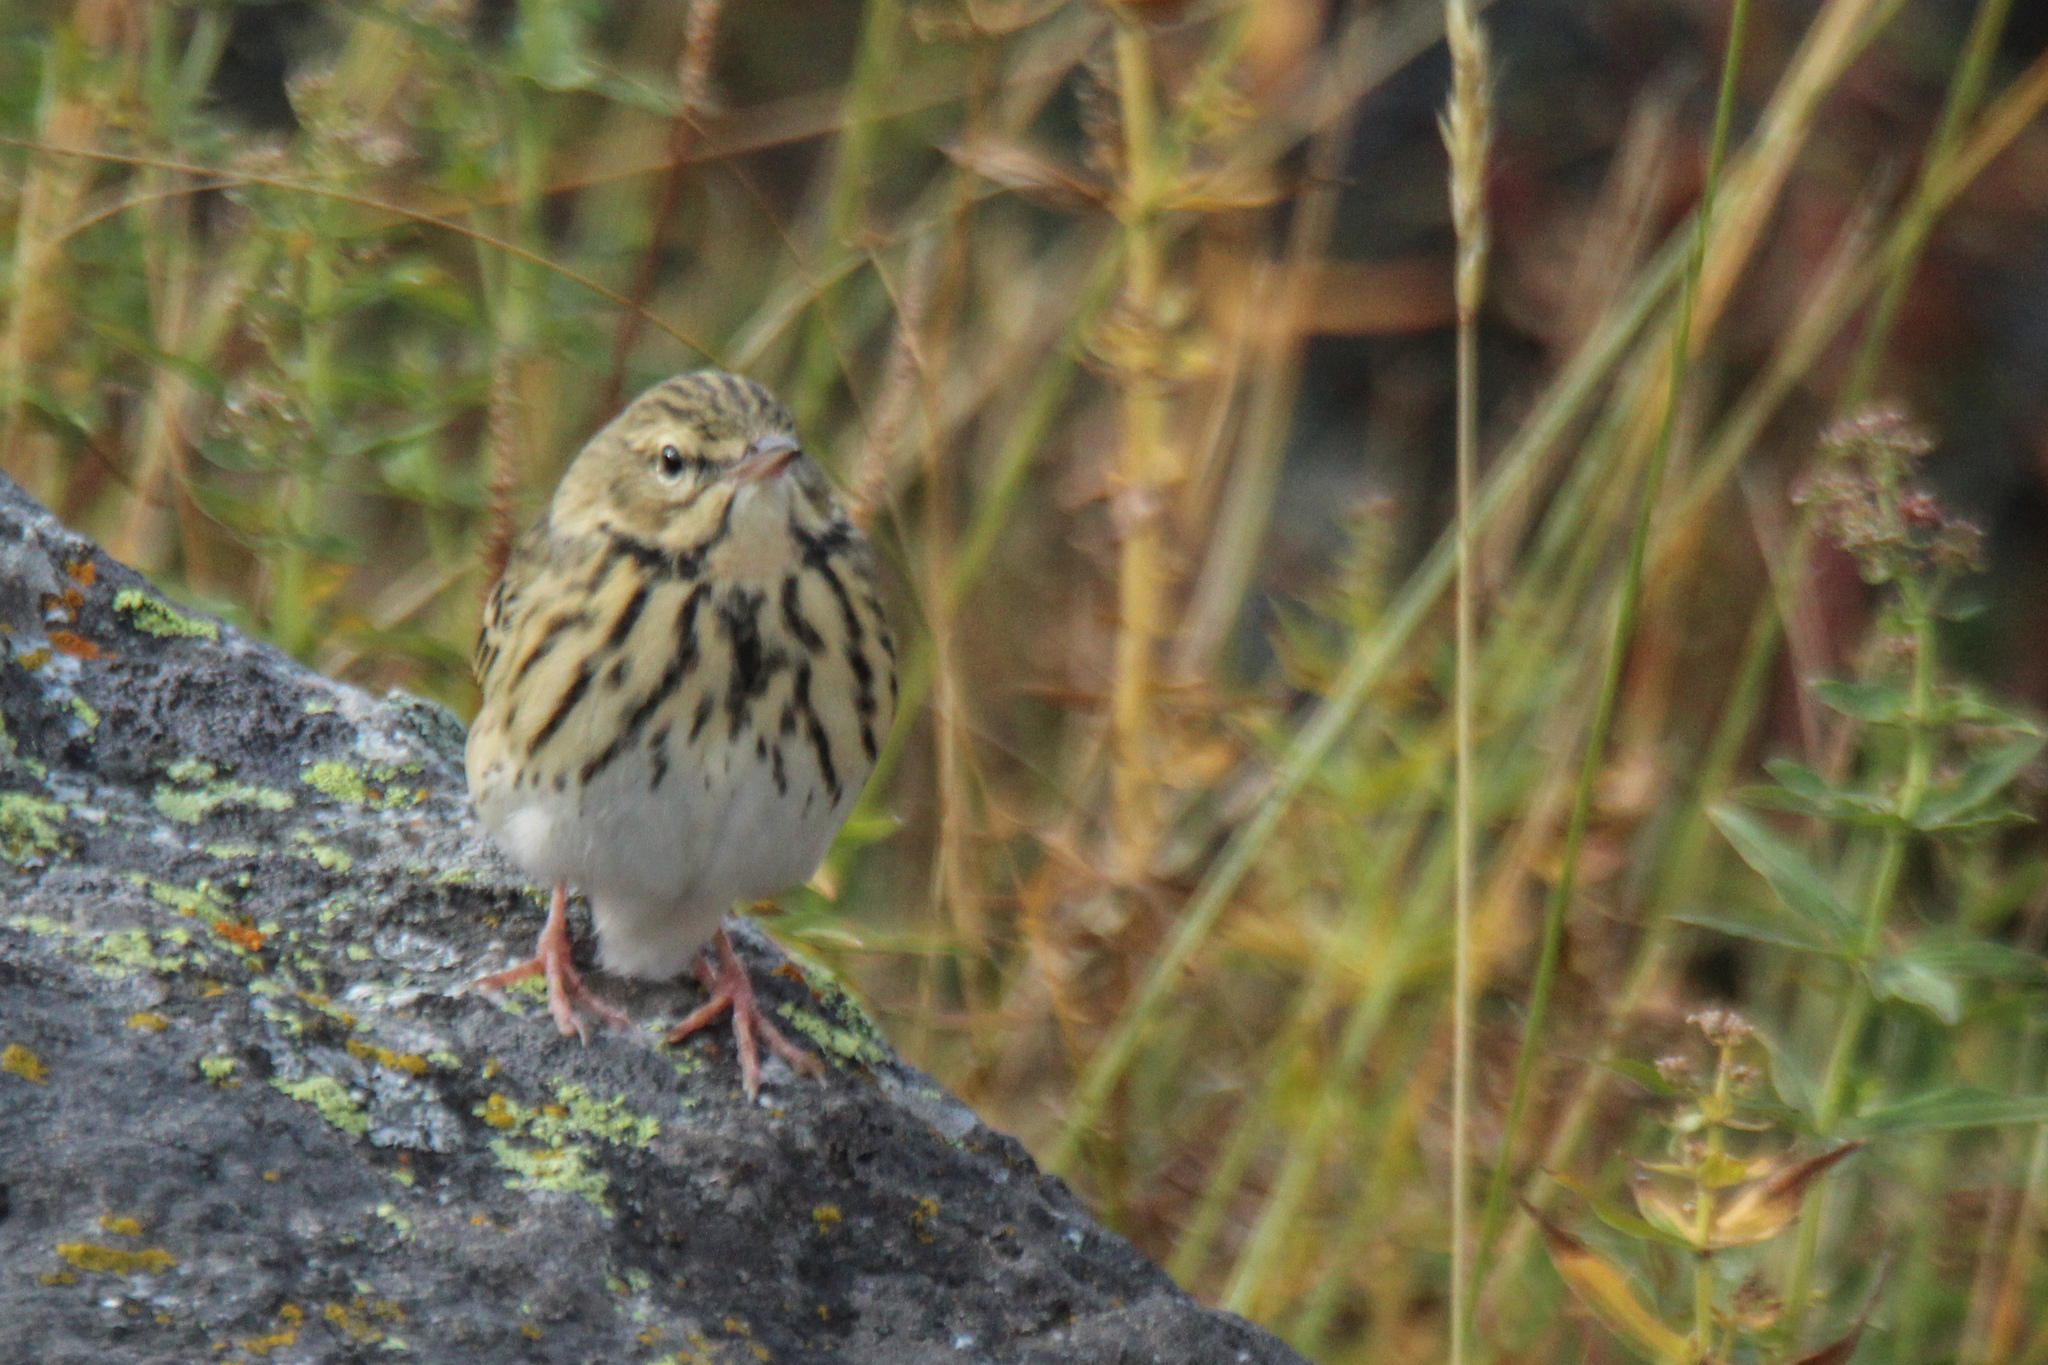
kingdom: Animalia
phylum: Chordata
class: Aves
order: Passeriformes
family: Motacillidae
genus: Anthus
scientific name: Anthus trivialis
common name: Tree pipit
